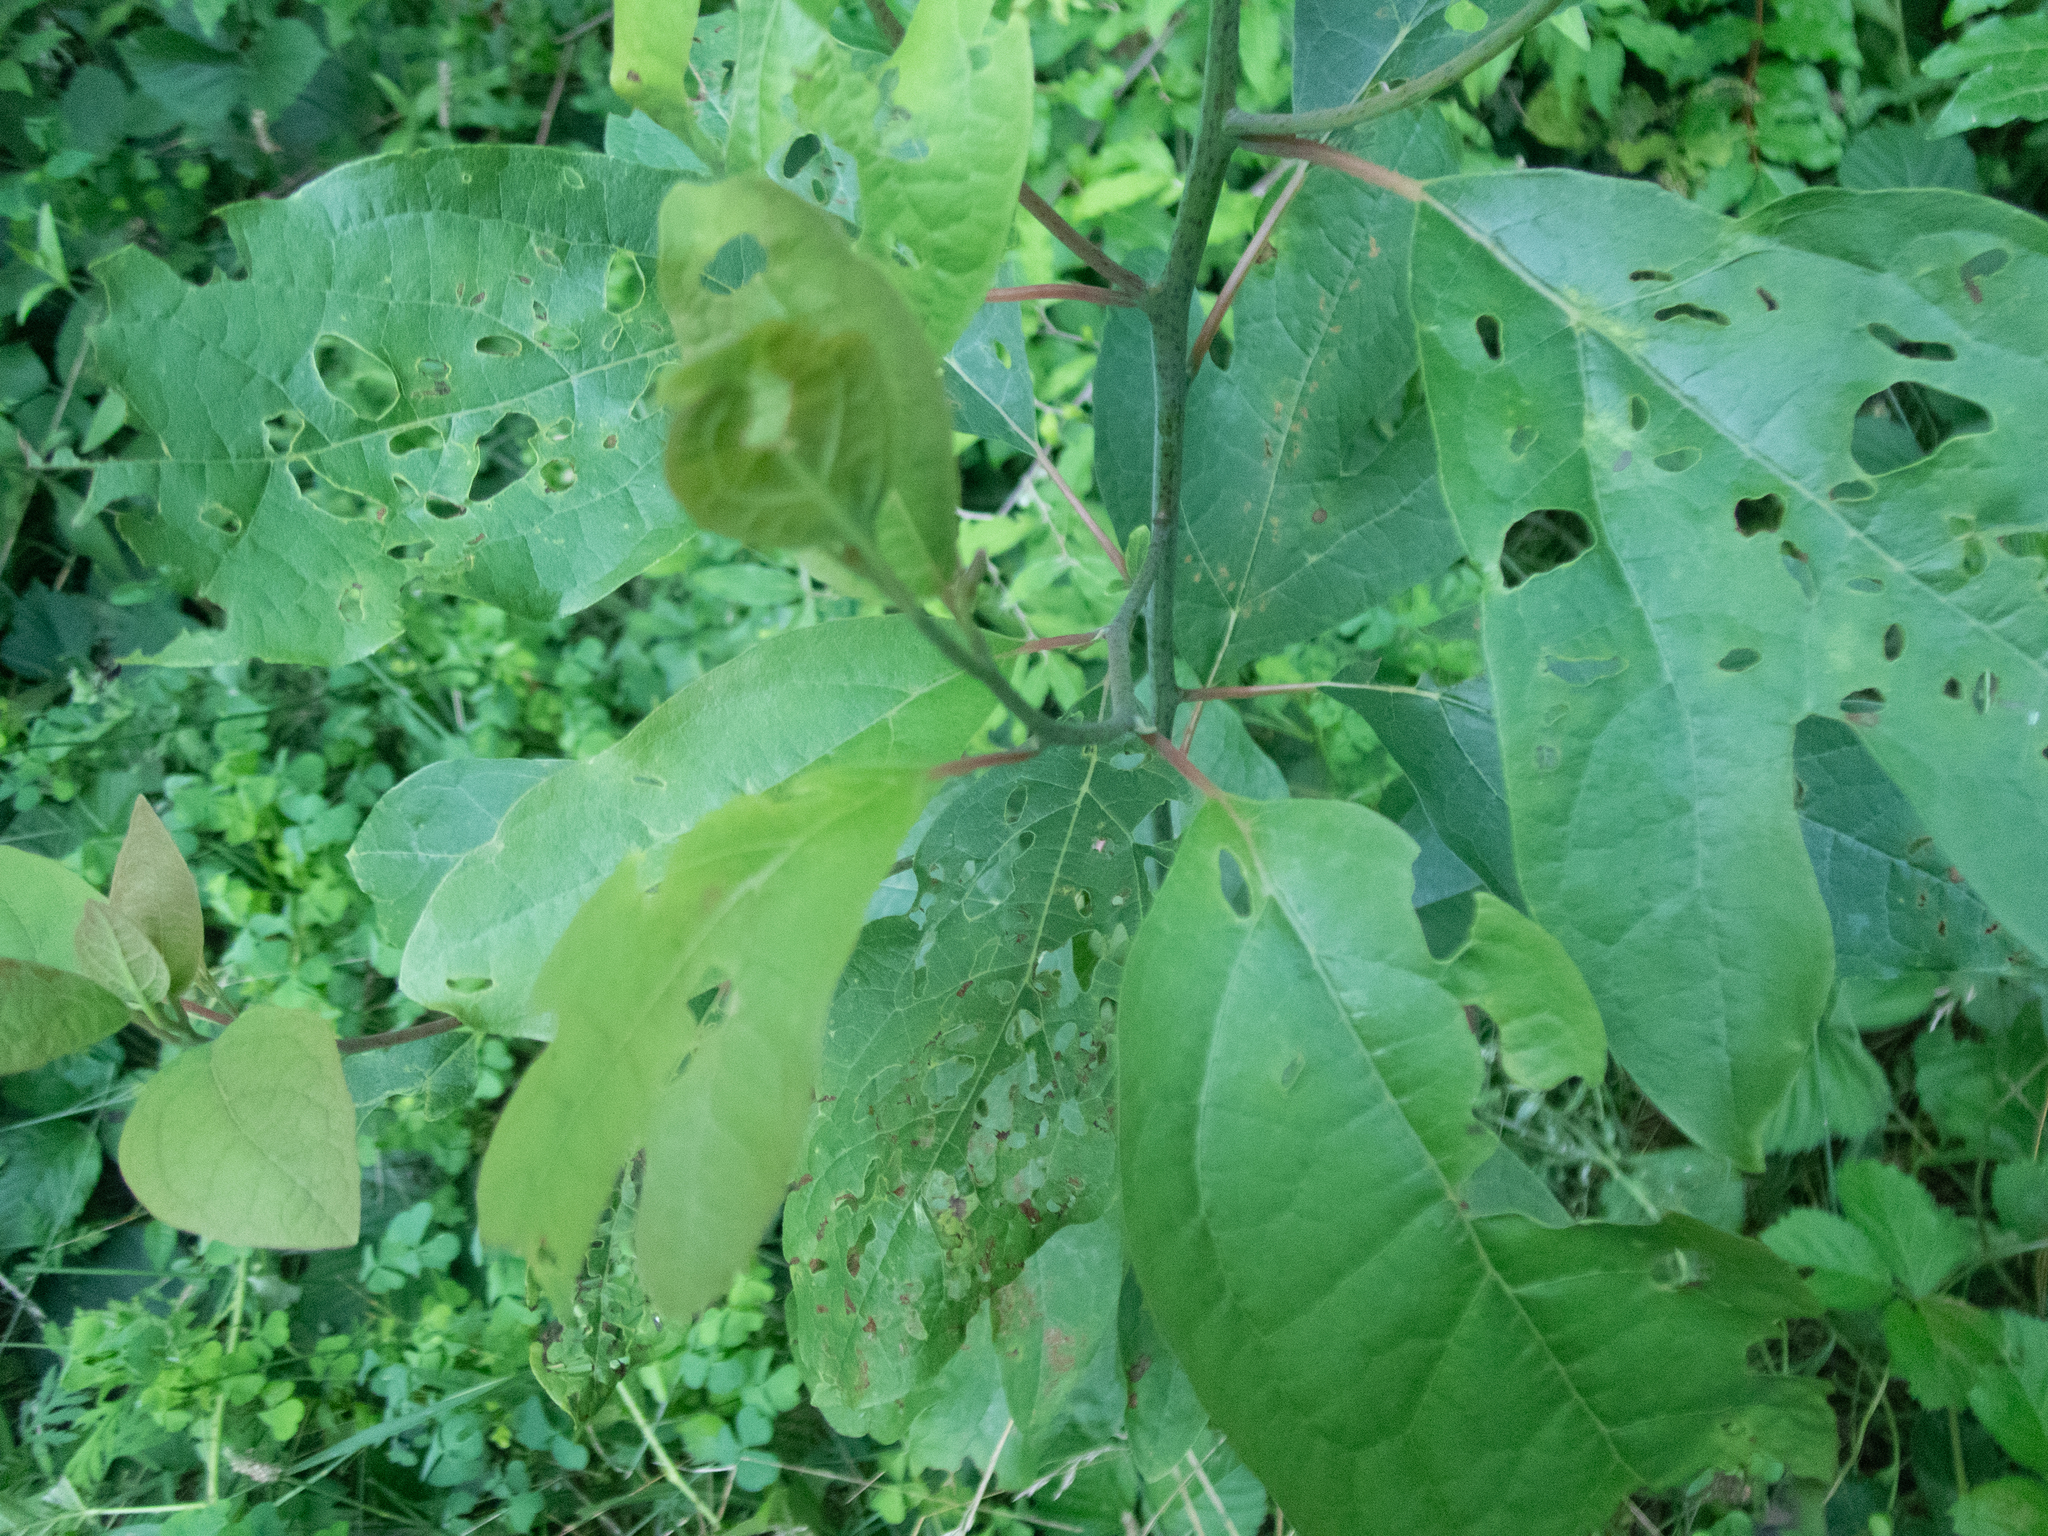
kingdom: Plantae
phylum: Tracheophyta
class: Magnoliopsida
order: Laurales
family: Lauraceae
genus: Sassafras
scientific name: Sassafras albidum
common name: Sassafras
